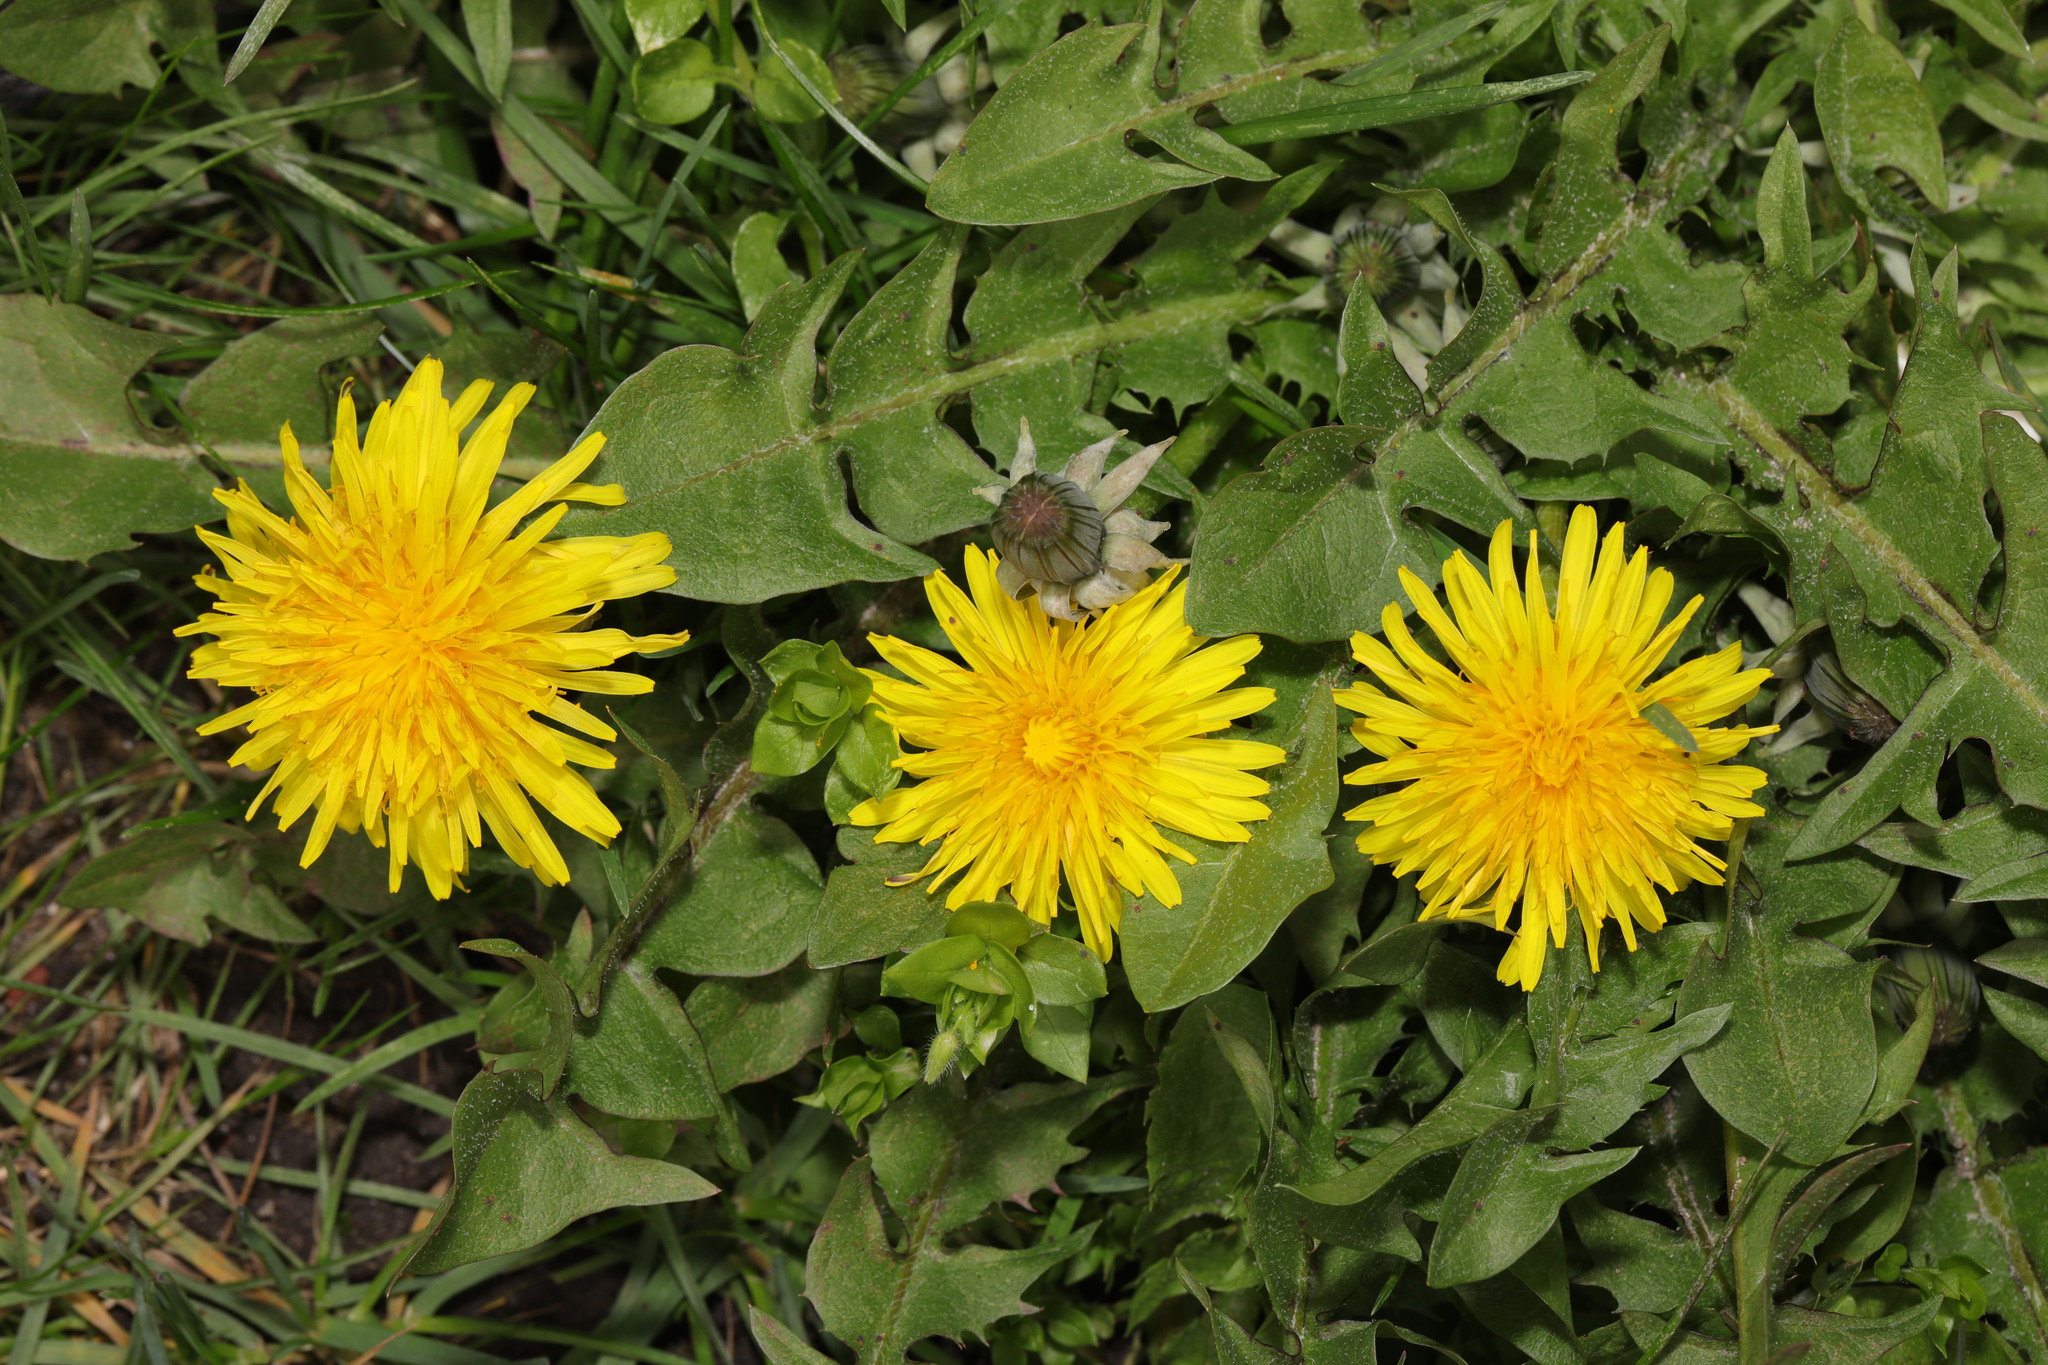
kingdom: Plantae
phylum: Tracheophyta
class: Magnoliopsida
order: Asterales
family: Asteraceae
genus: Taraxacum
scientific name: Taraxacum officinale
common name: Common dandelion
